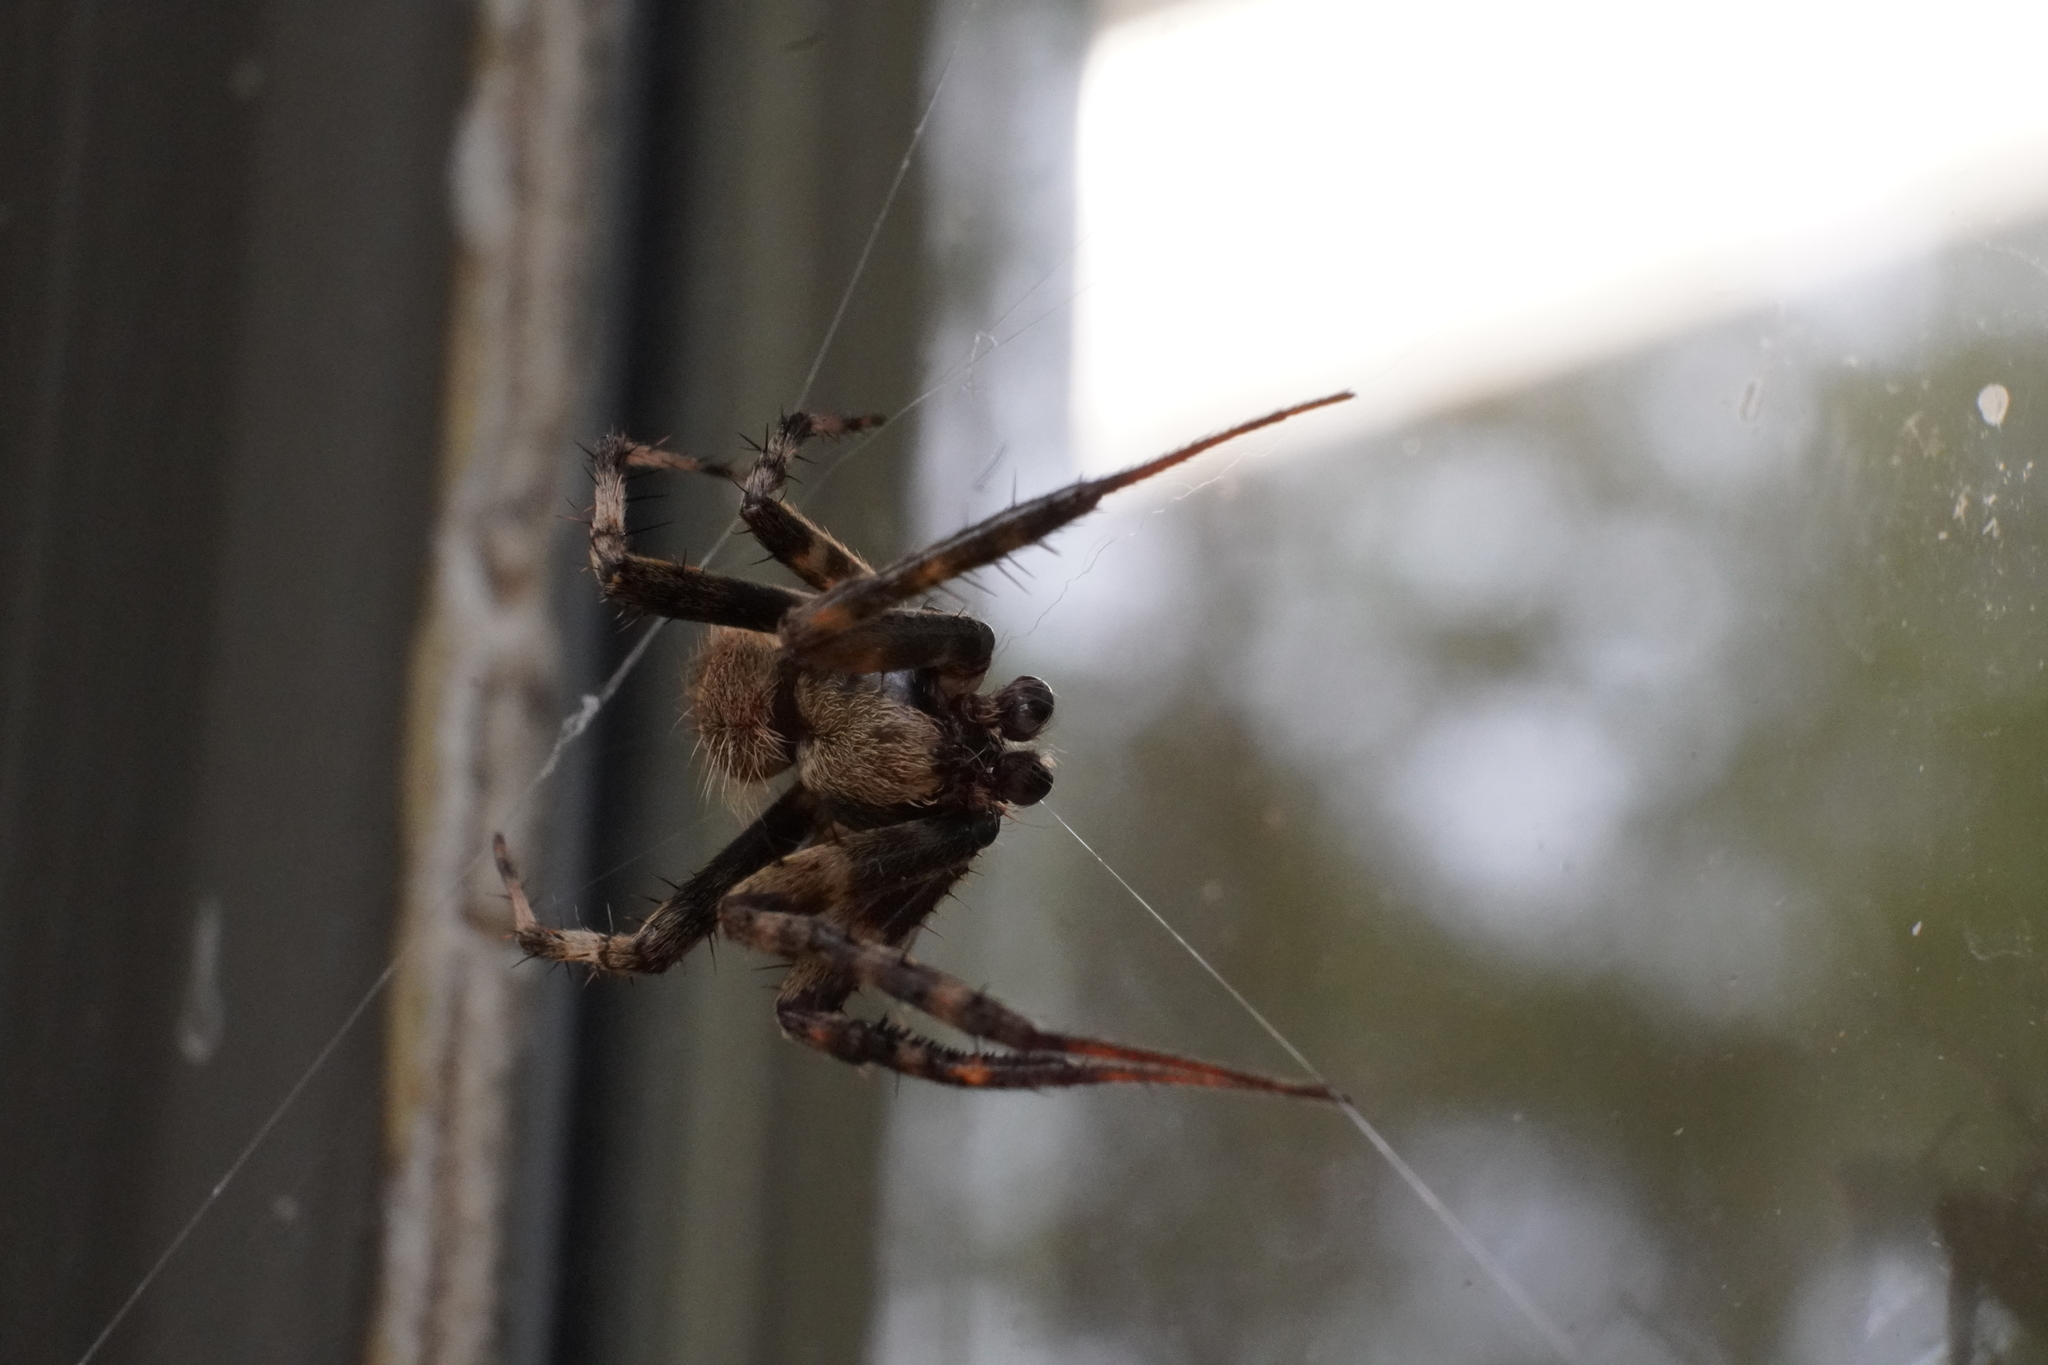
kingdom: Animalia
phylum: Arthropoda
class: Arachnida
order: Araneae
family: Araneidae
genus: Neoscona
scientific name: Neoscona crucifera
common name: Spotted orbweaver
